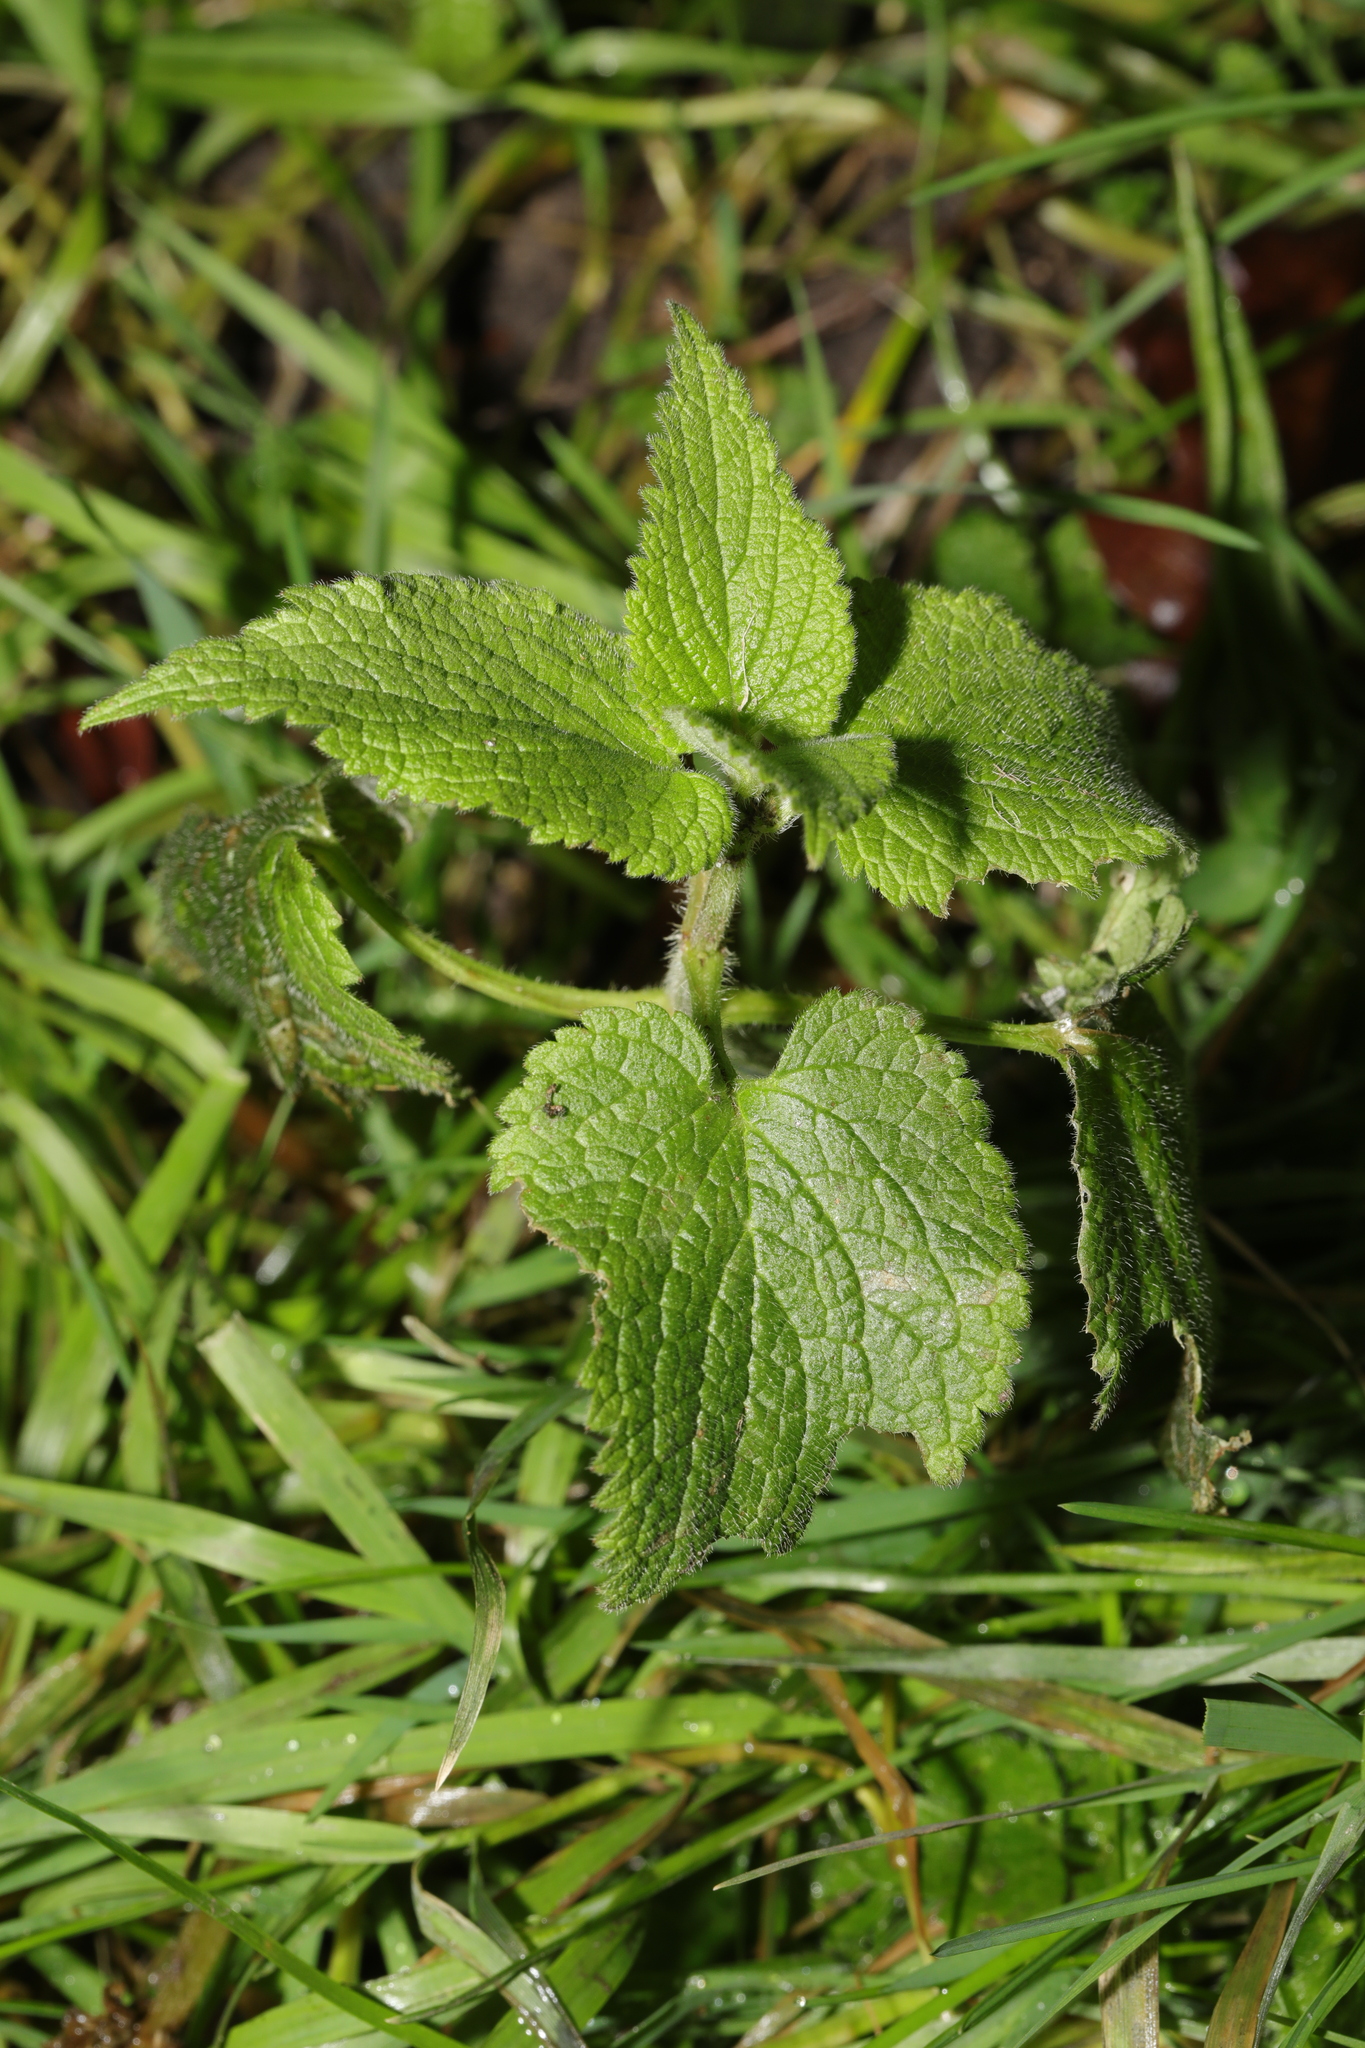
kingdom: Plantae
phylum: Tracheophyta
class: Magnoliopsida
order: Lamiales
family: Lamiaceae
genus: Lamium
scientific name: Lamium album
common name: White dead-nettle
